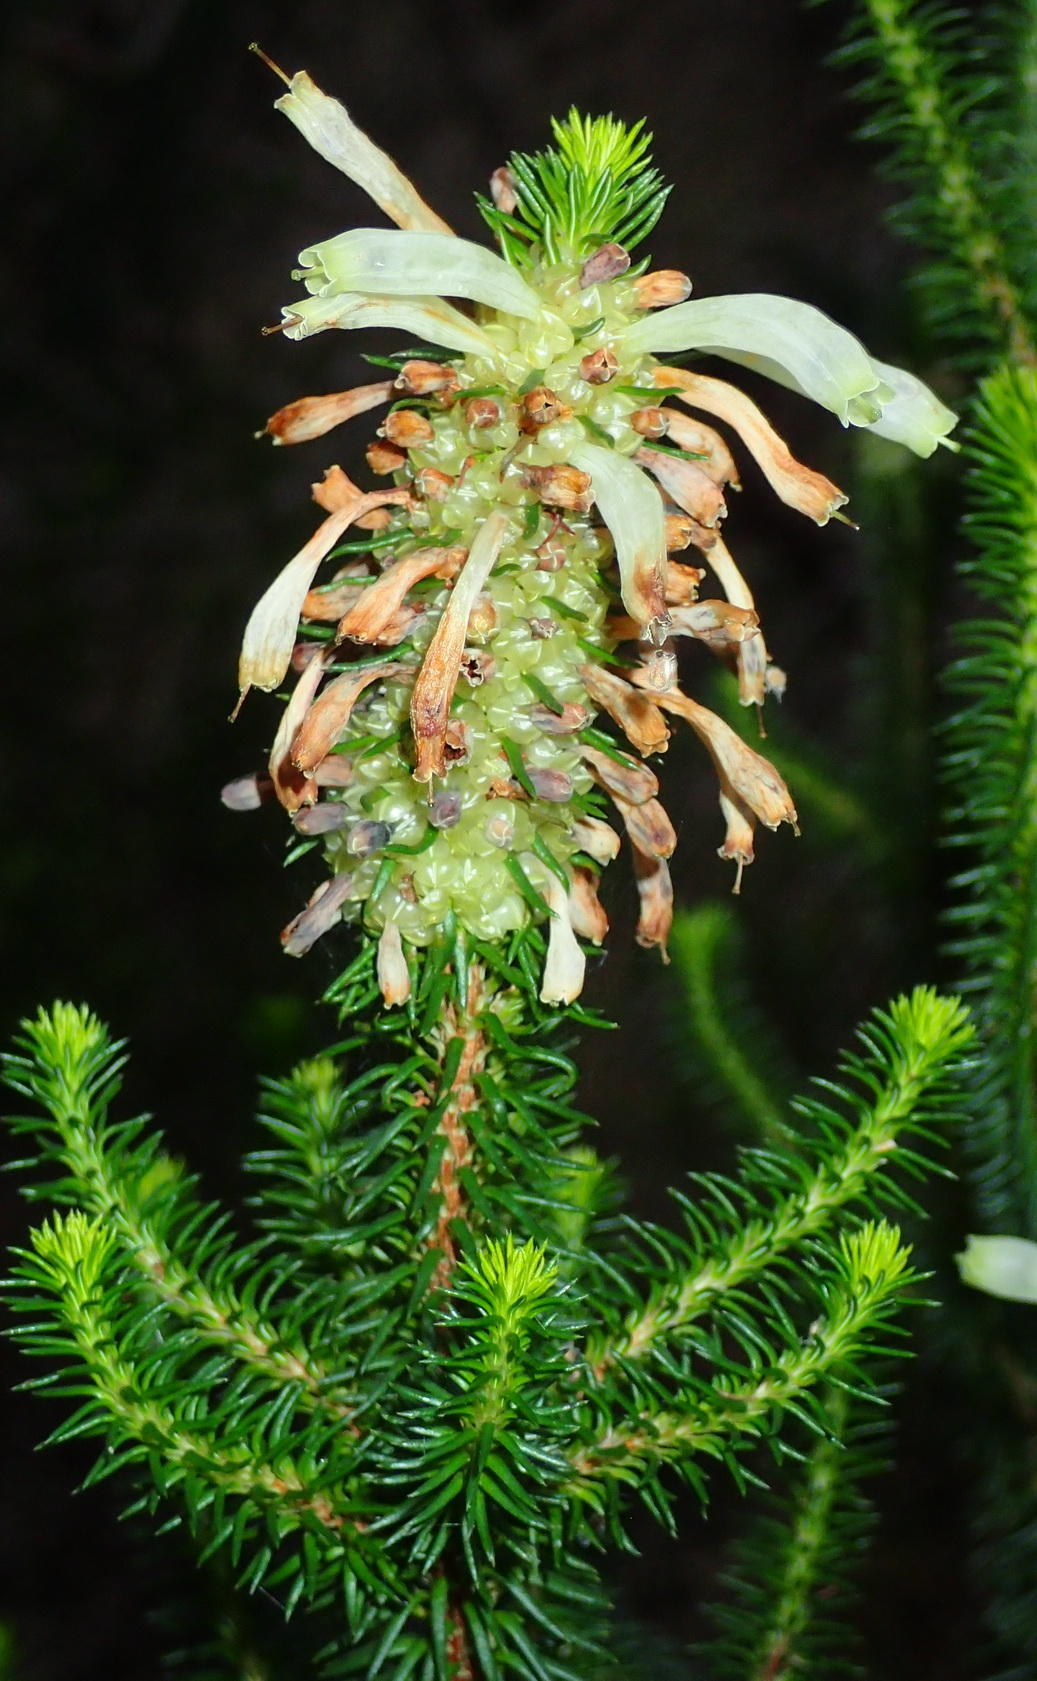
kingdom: Plantae
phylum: Tracheophyta
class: Magnoliopsida
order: Ericales
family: Ericaceae
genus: Erica
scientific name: Erica sessiliflora
